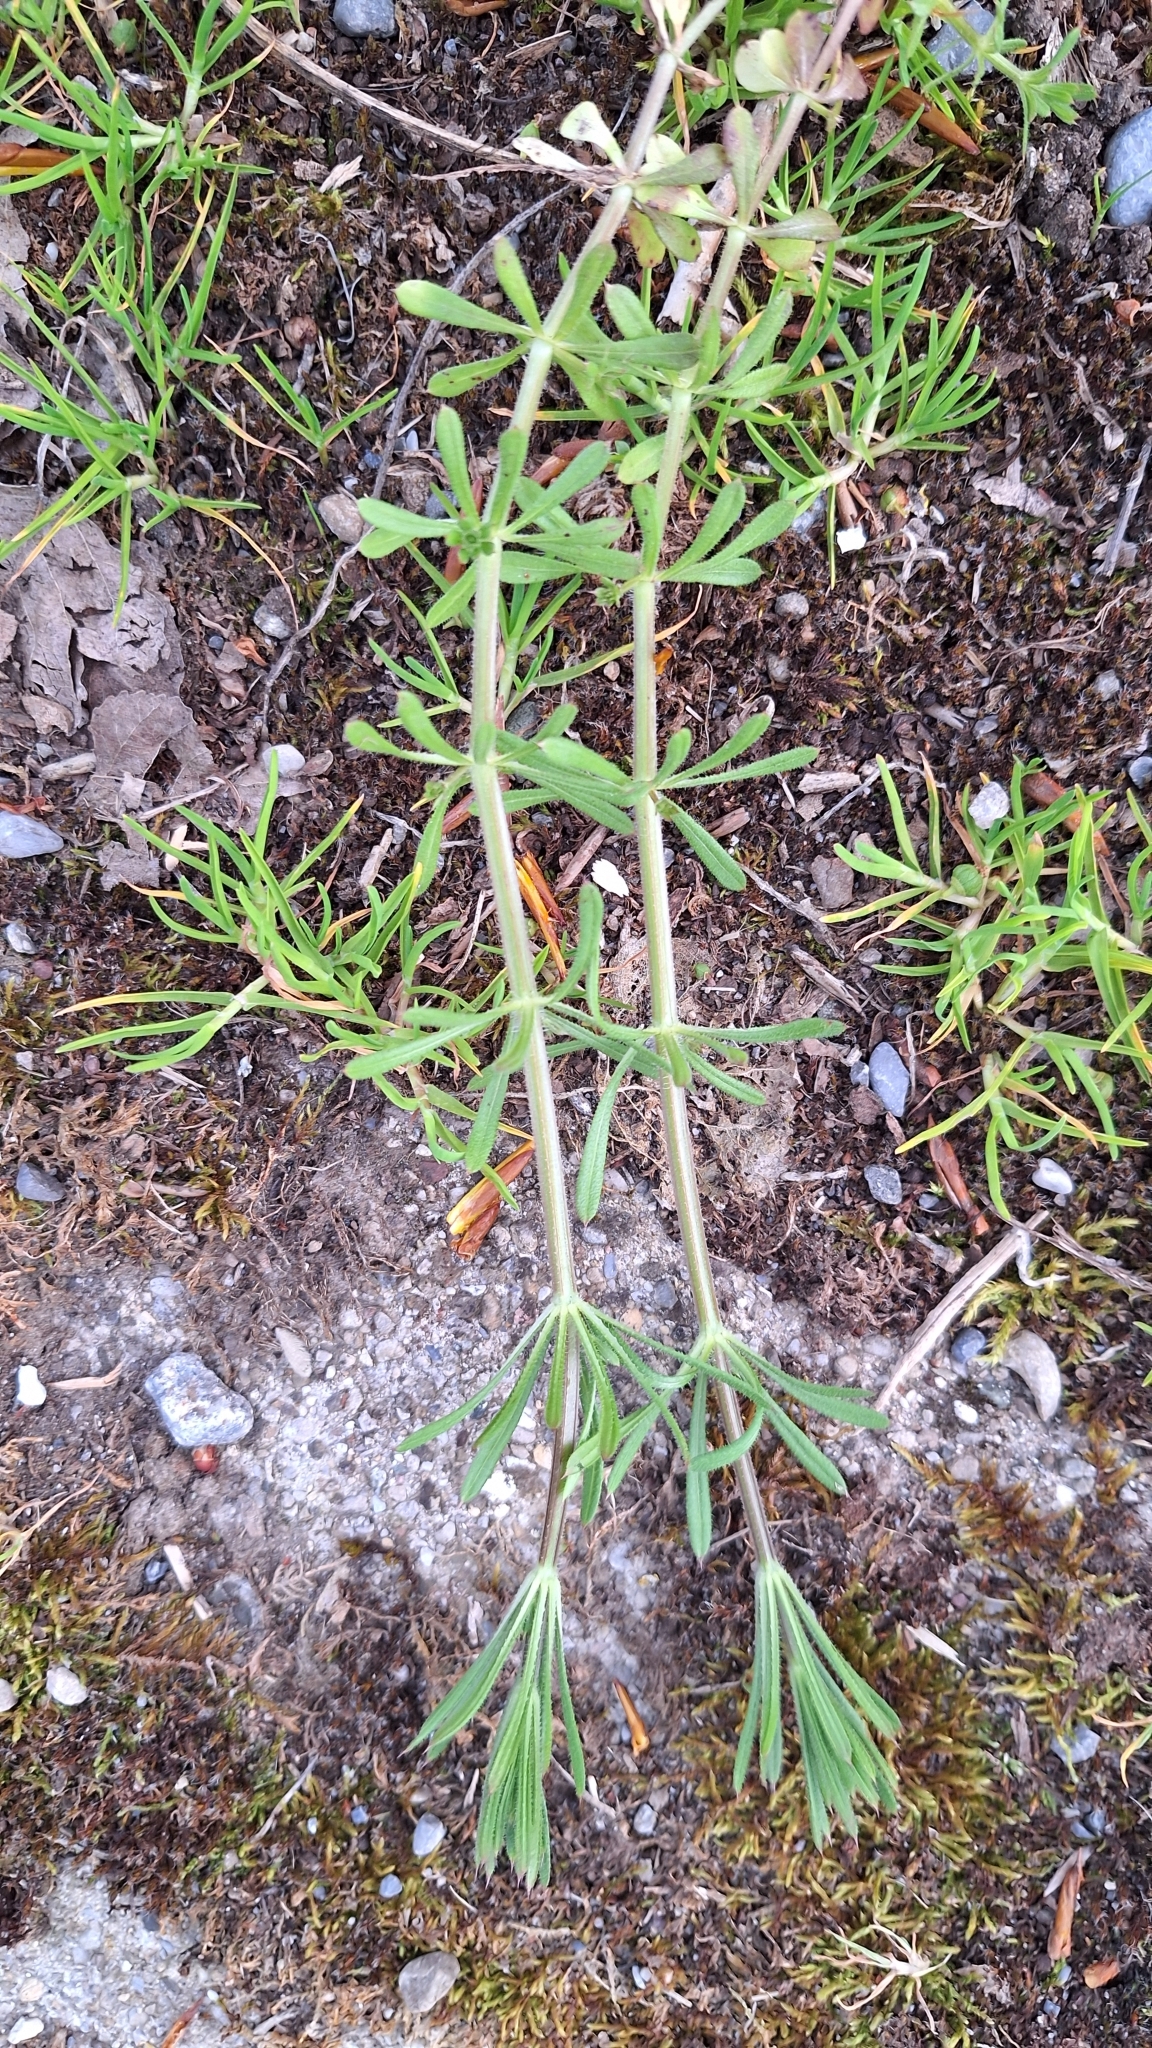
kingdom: Plantae
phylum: Tracheophyta
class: Magnoliopsida
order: Gentianales
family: Rubiaceae
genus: Galium
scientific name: Galium aparine
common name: Cleavers
